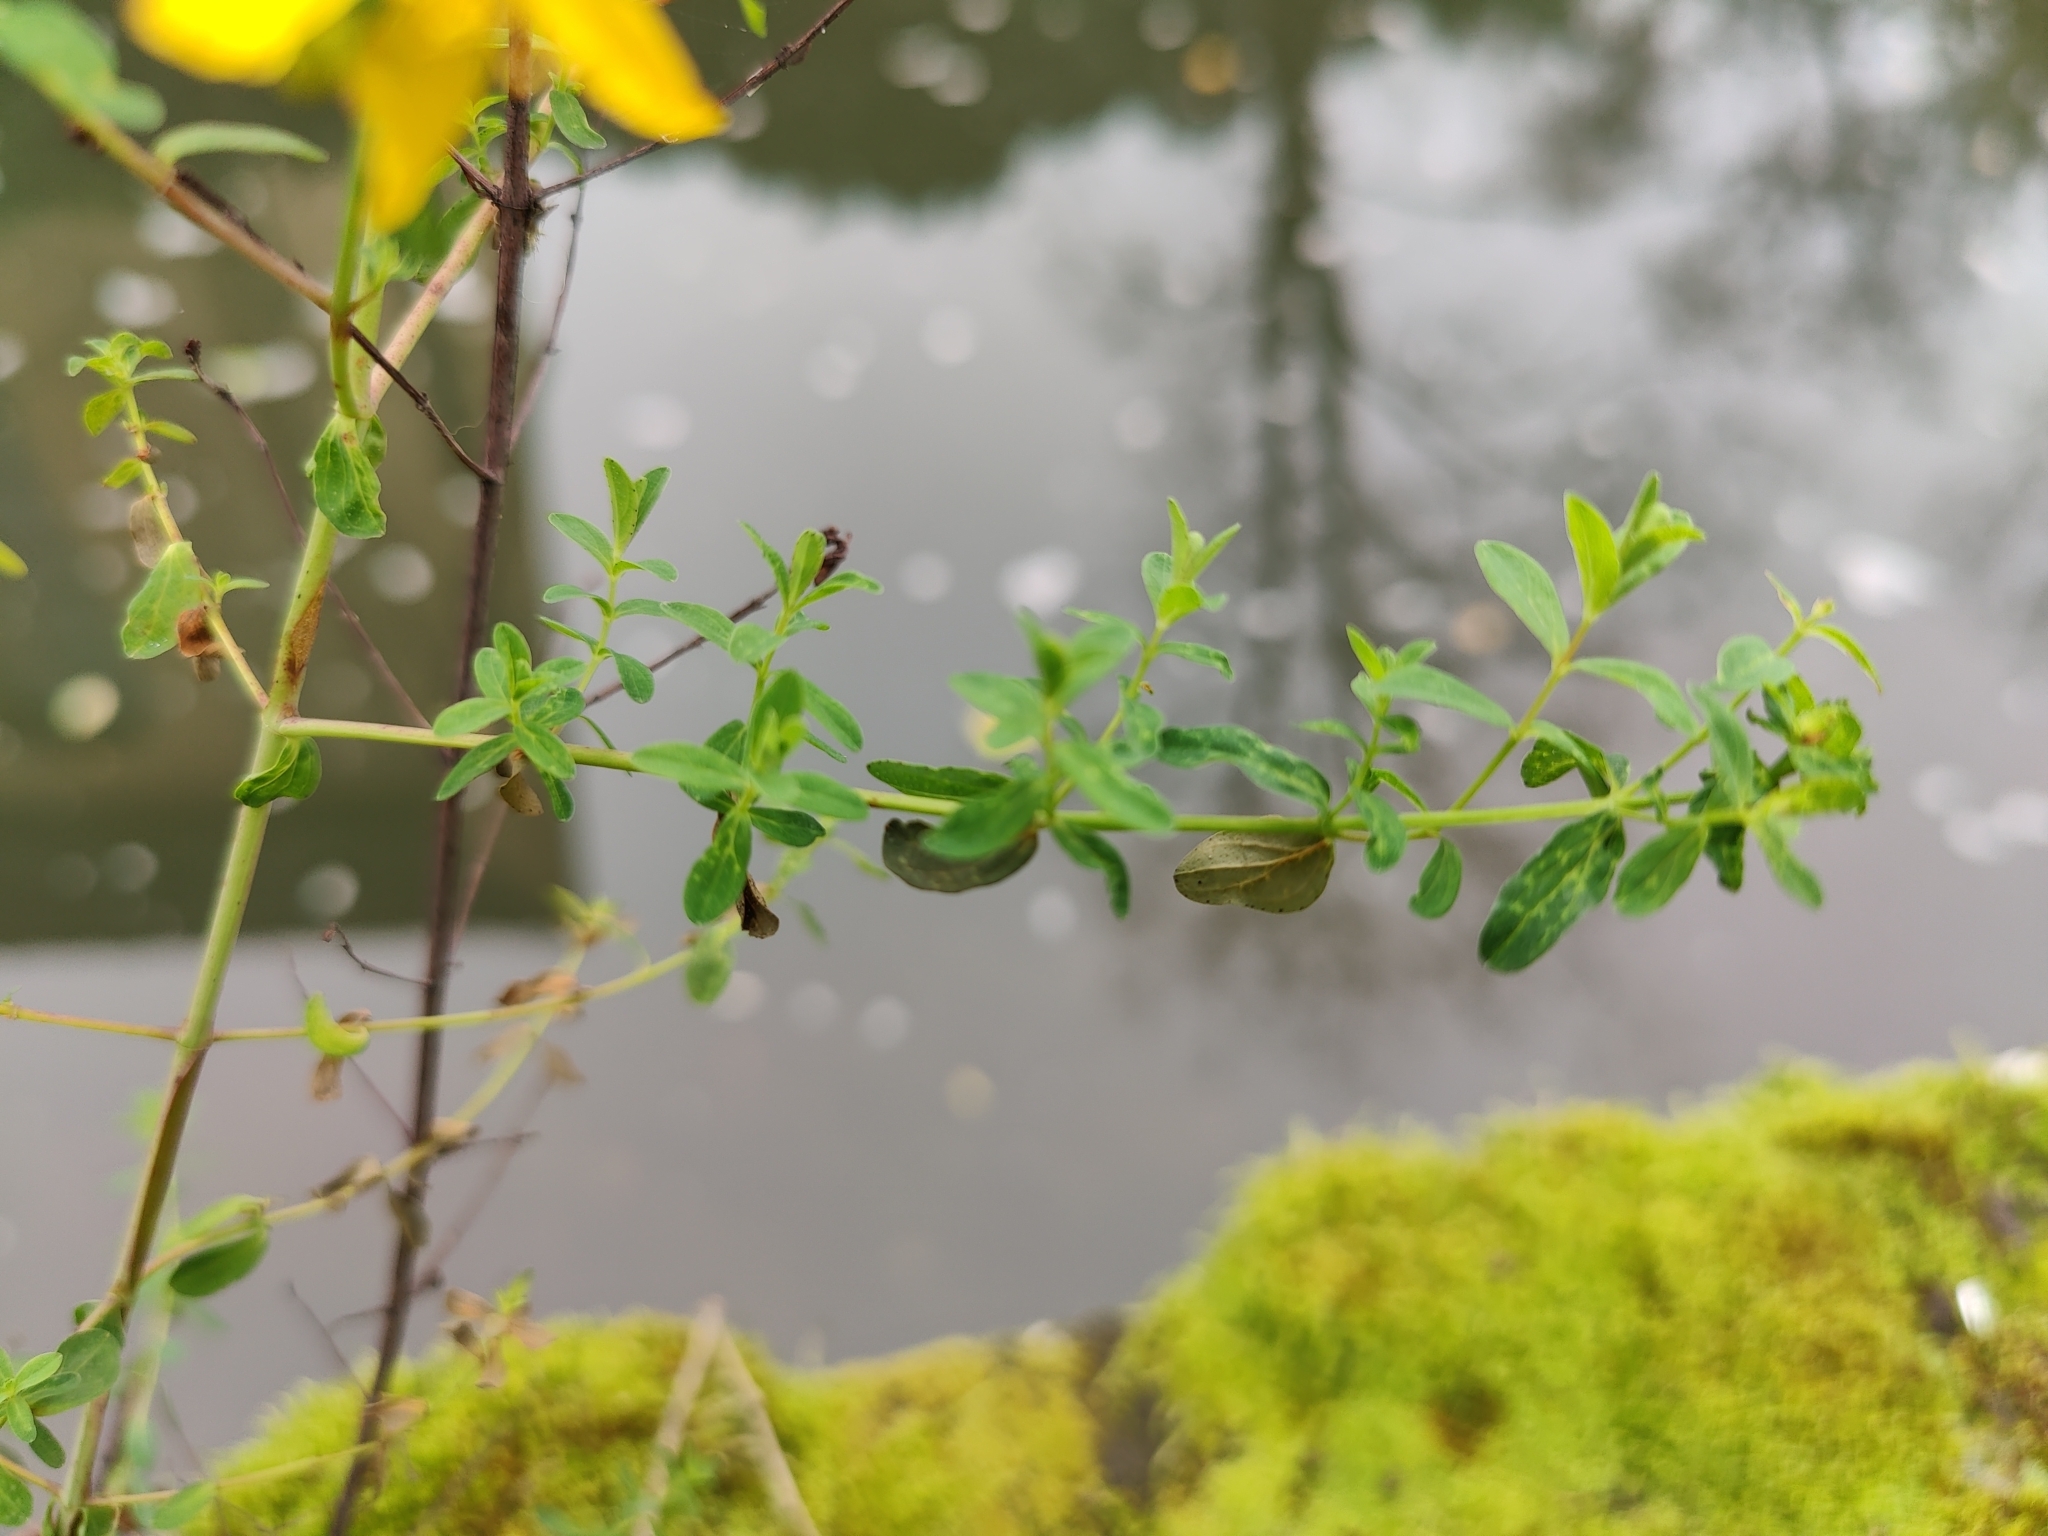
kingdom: Plantae
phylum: Tracheophyta
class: Magnoliopsida
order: Malpighiales
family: Hypericaceae
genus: Hypericum
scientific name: Hypericum perforatum
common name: Common st. johnswort
